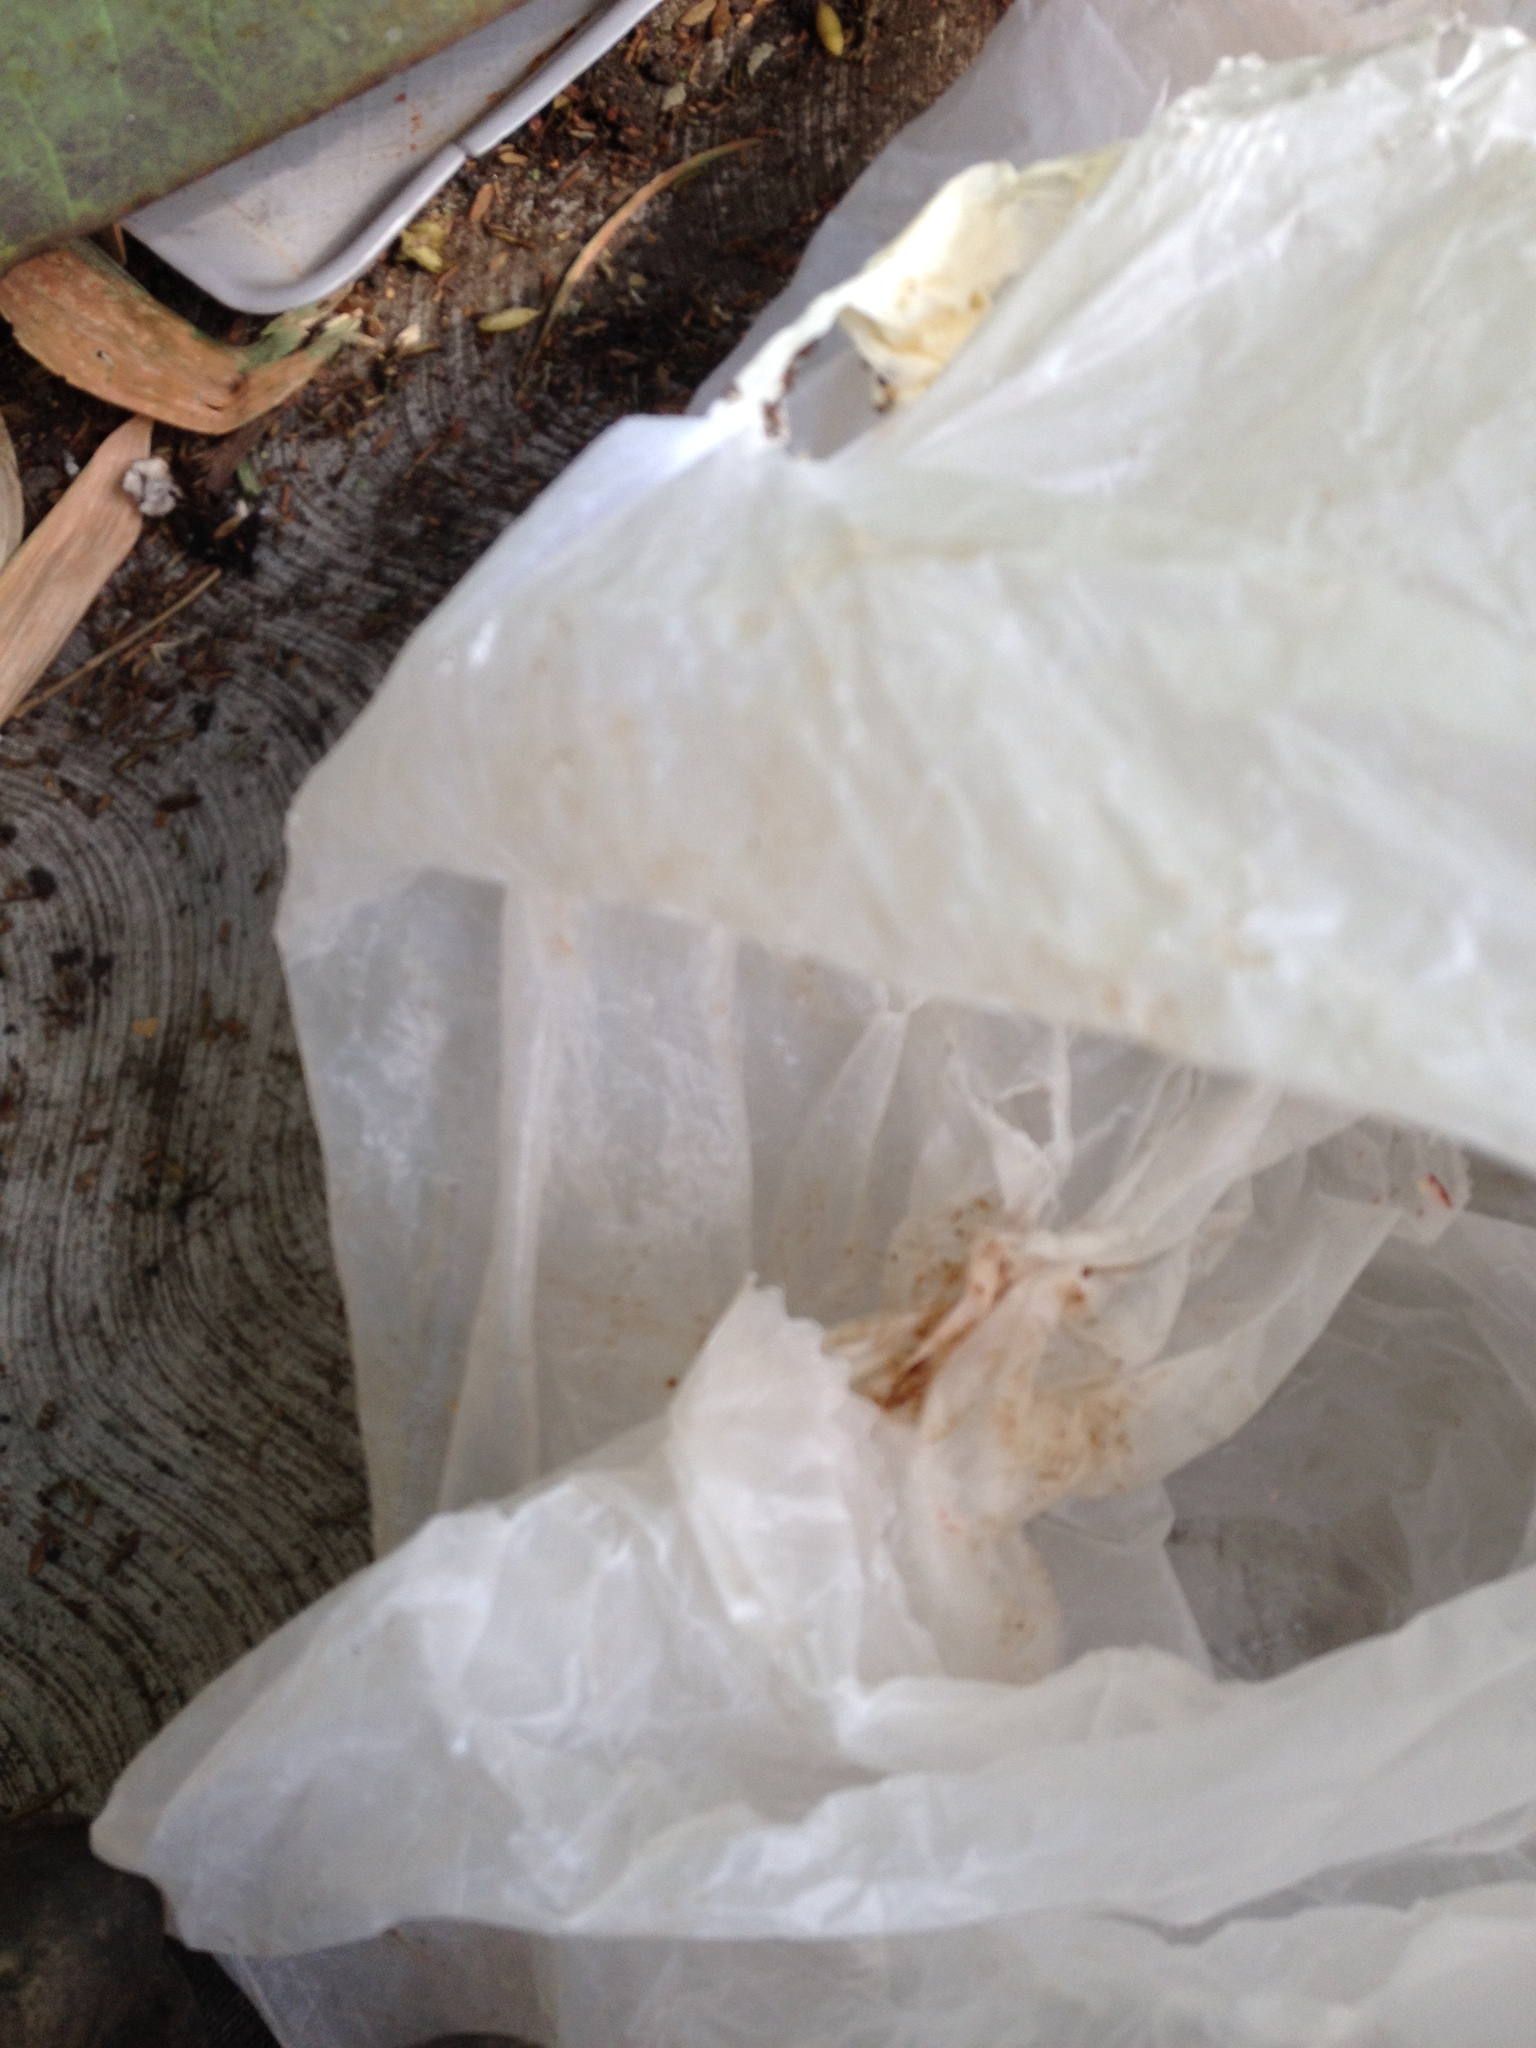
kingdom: Animalia
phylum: Chordata
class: Mammalia
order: Didelphimorphia
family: Didelphidae
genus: Didelphis
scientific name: Didelphis virginiana
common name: Virginia opossum
